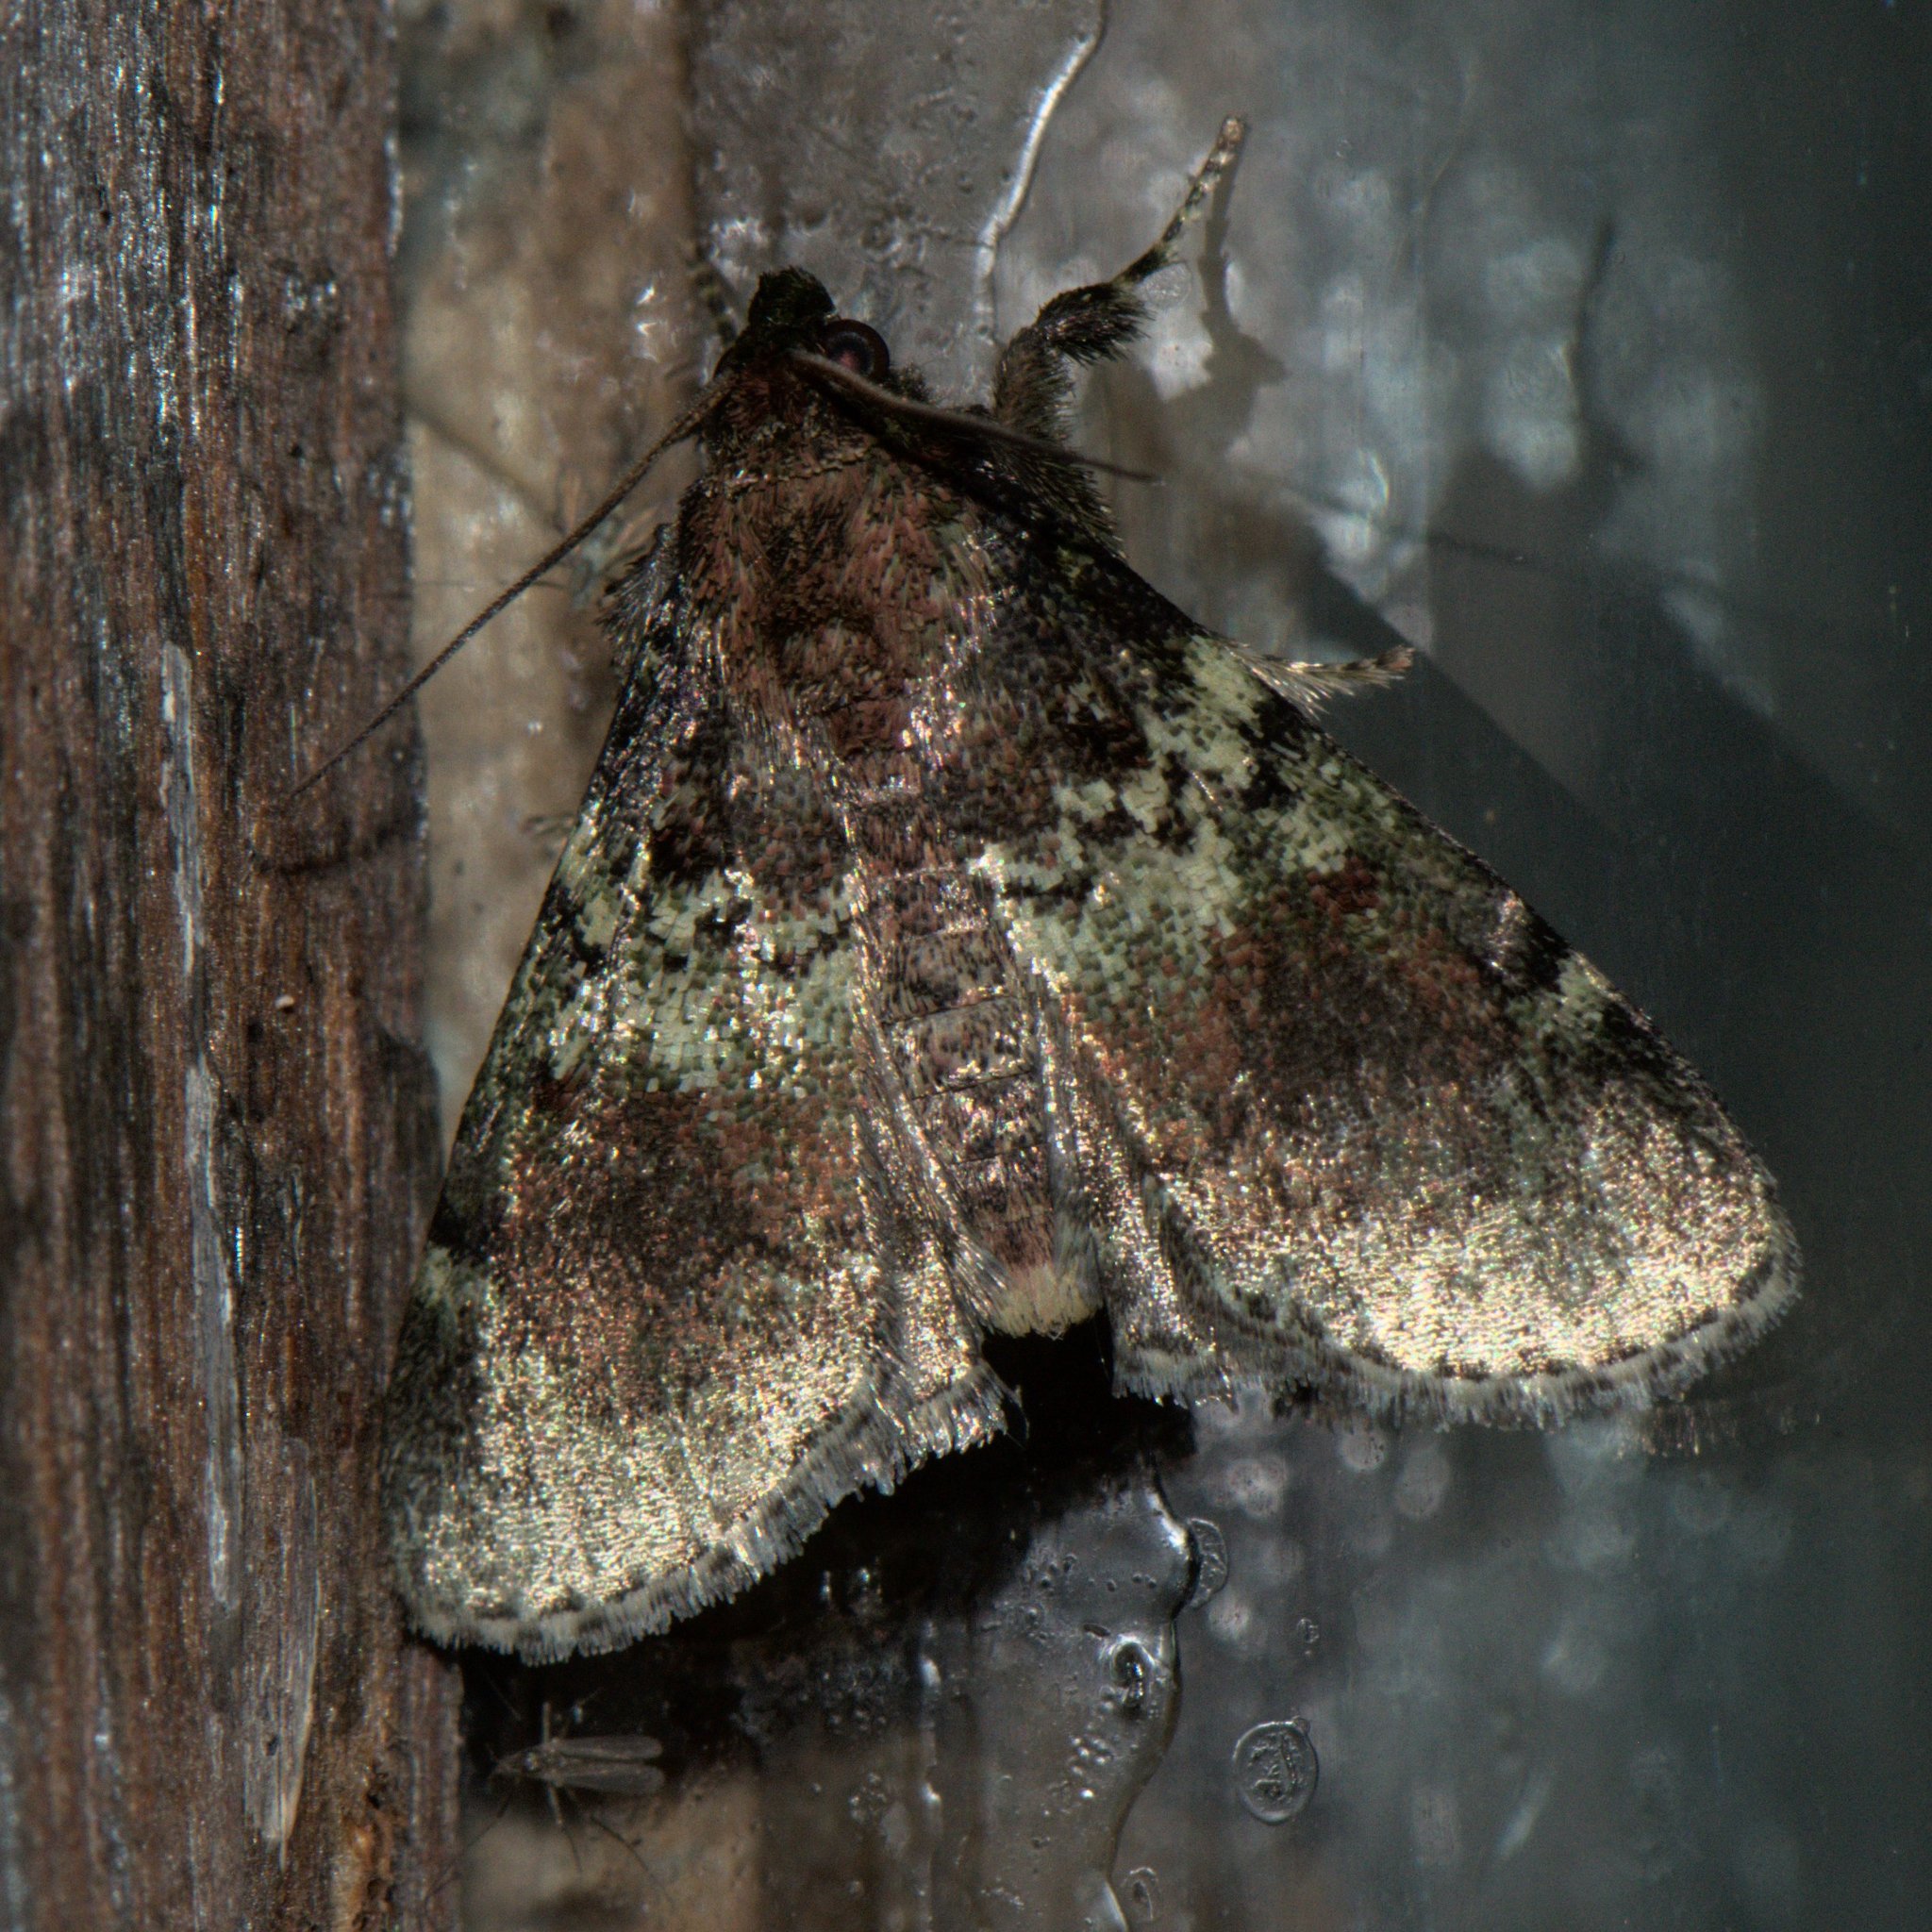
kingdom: Animalia
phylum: Arthropoda
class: Insecta
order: Lepidoptera
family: Pyralidae
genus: Locastra
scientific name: Locastra viridis
